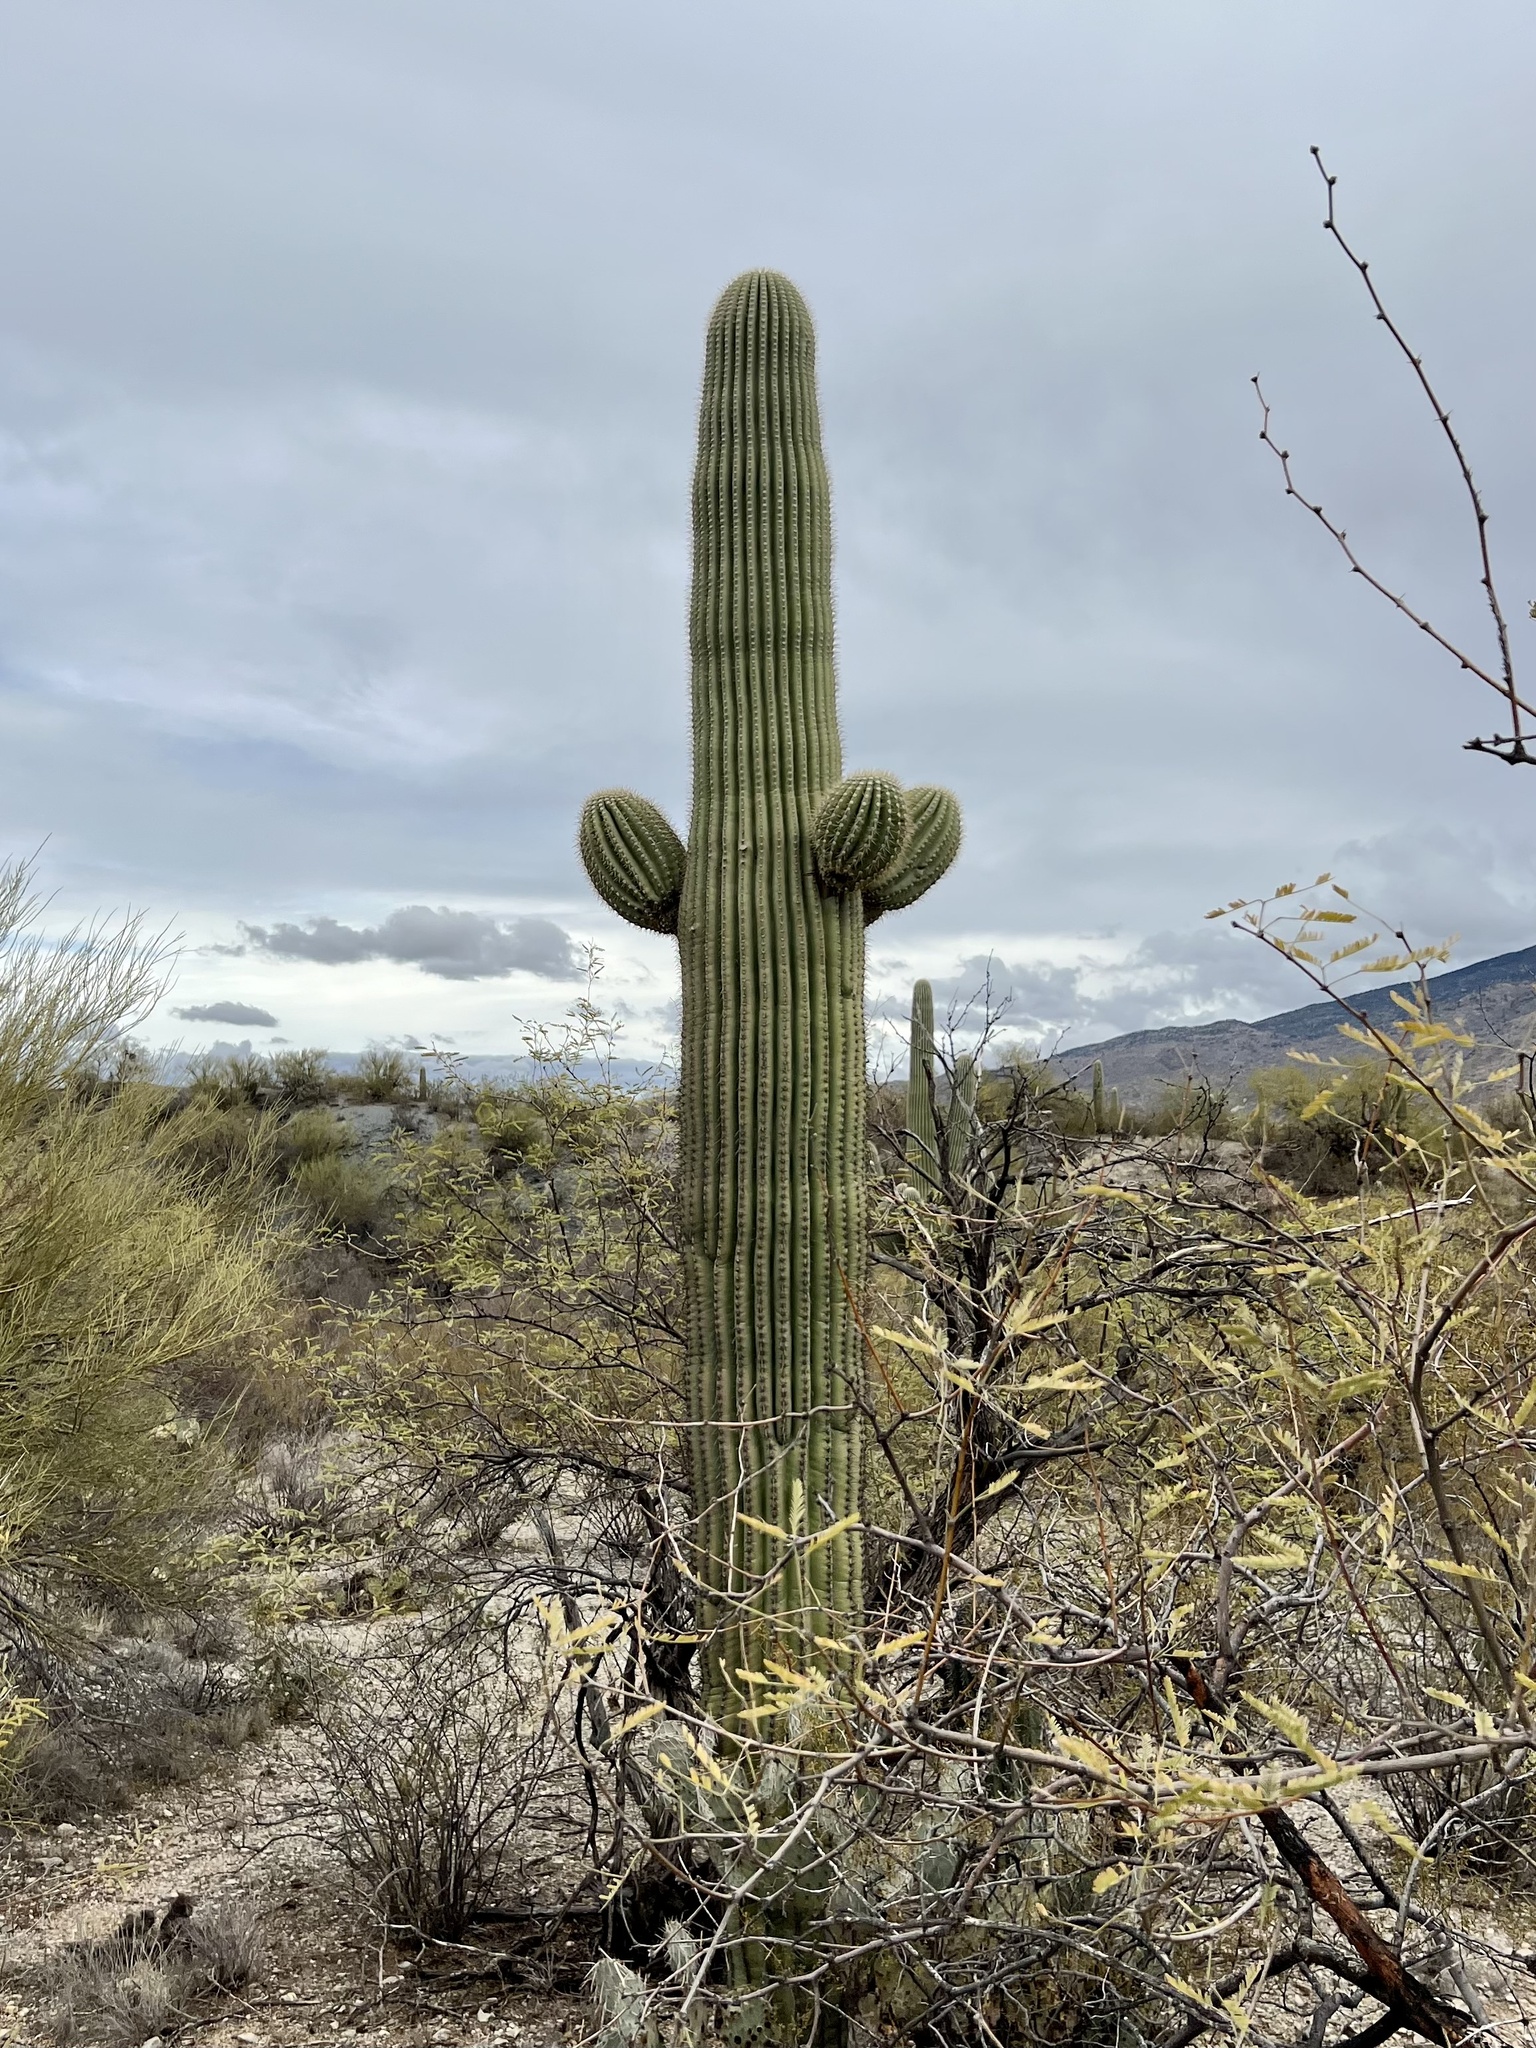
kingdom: Plantae
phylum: Tracheophyta
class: Magnoliopsida
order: Caryophyllales
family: Cactaceae
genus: Carnegiea
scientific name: Carnegiea gigantea
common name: Saguaro
